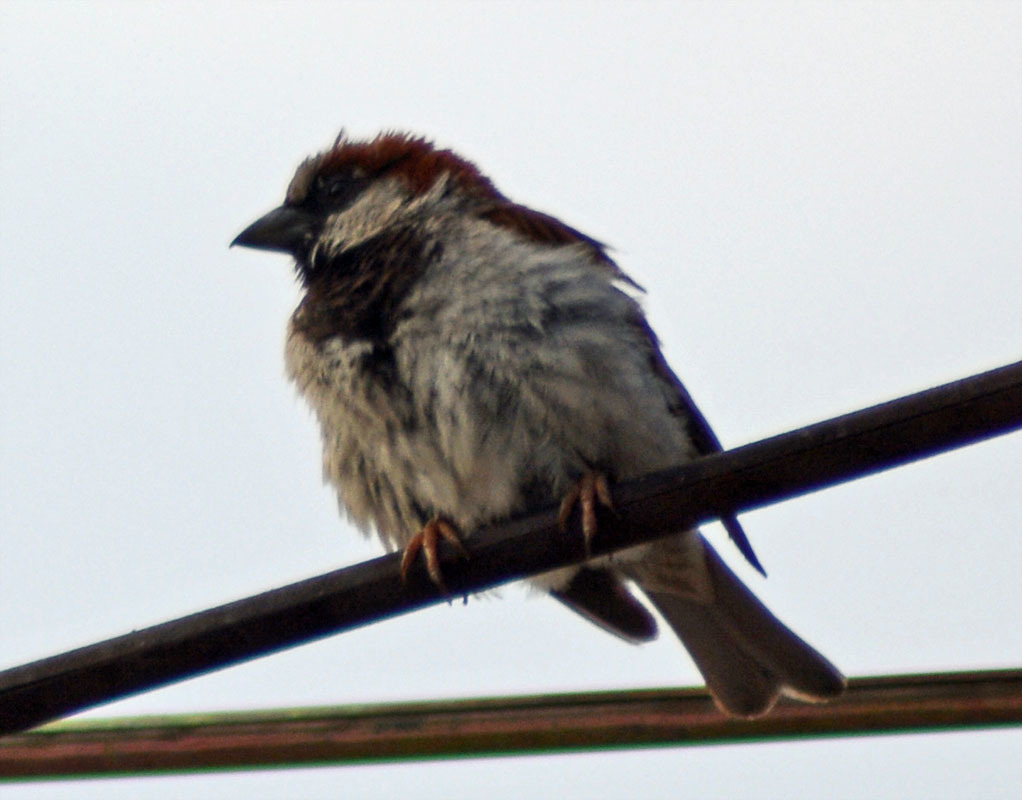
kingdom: Animalia
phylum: Chordata
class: Aves
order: Passeriformes
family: Passeridae
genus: Passer
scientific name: Passer domesticus
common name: House sparrow
